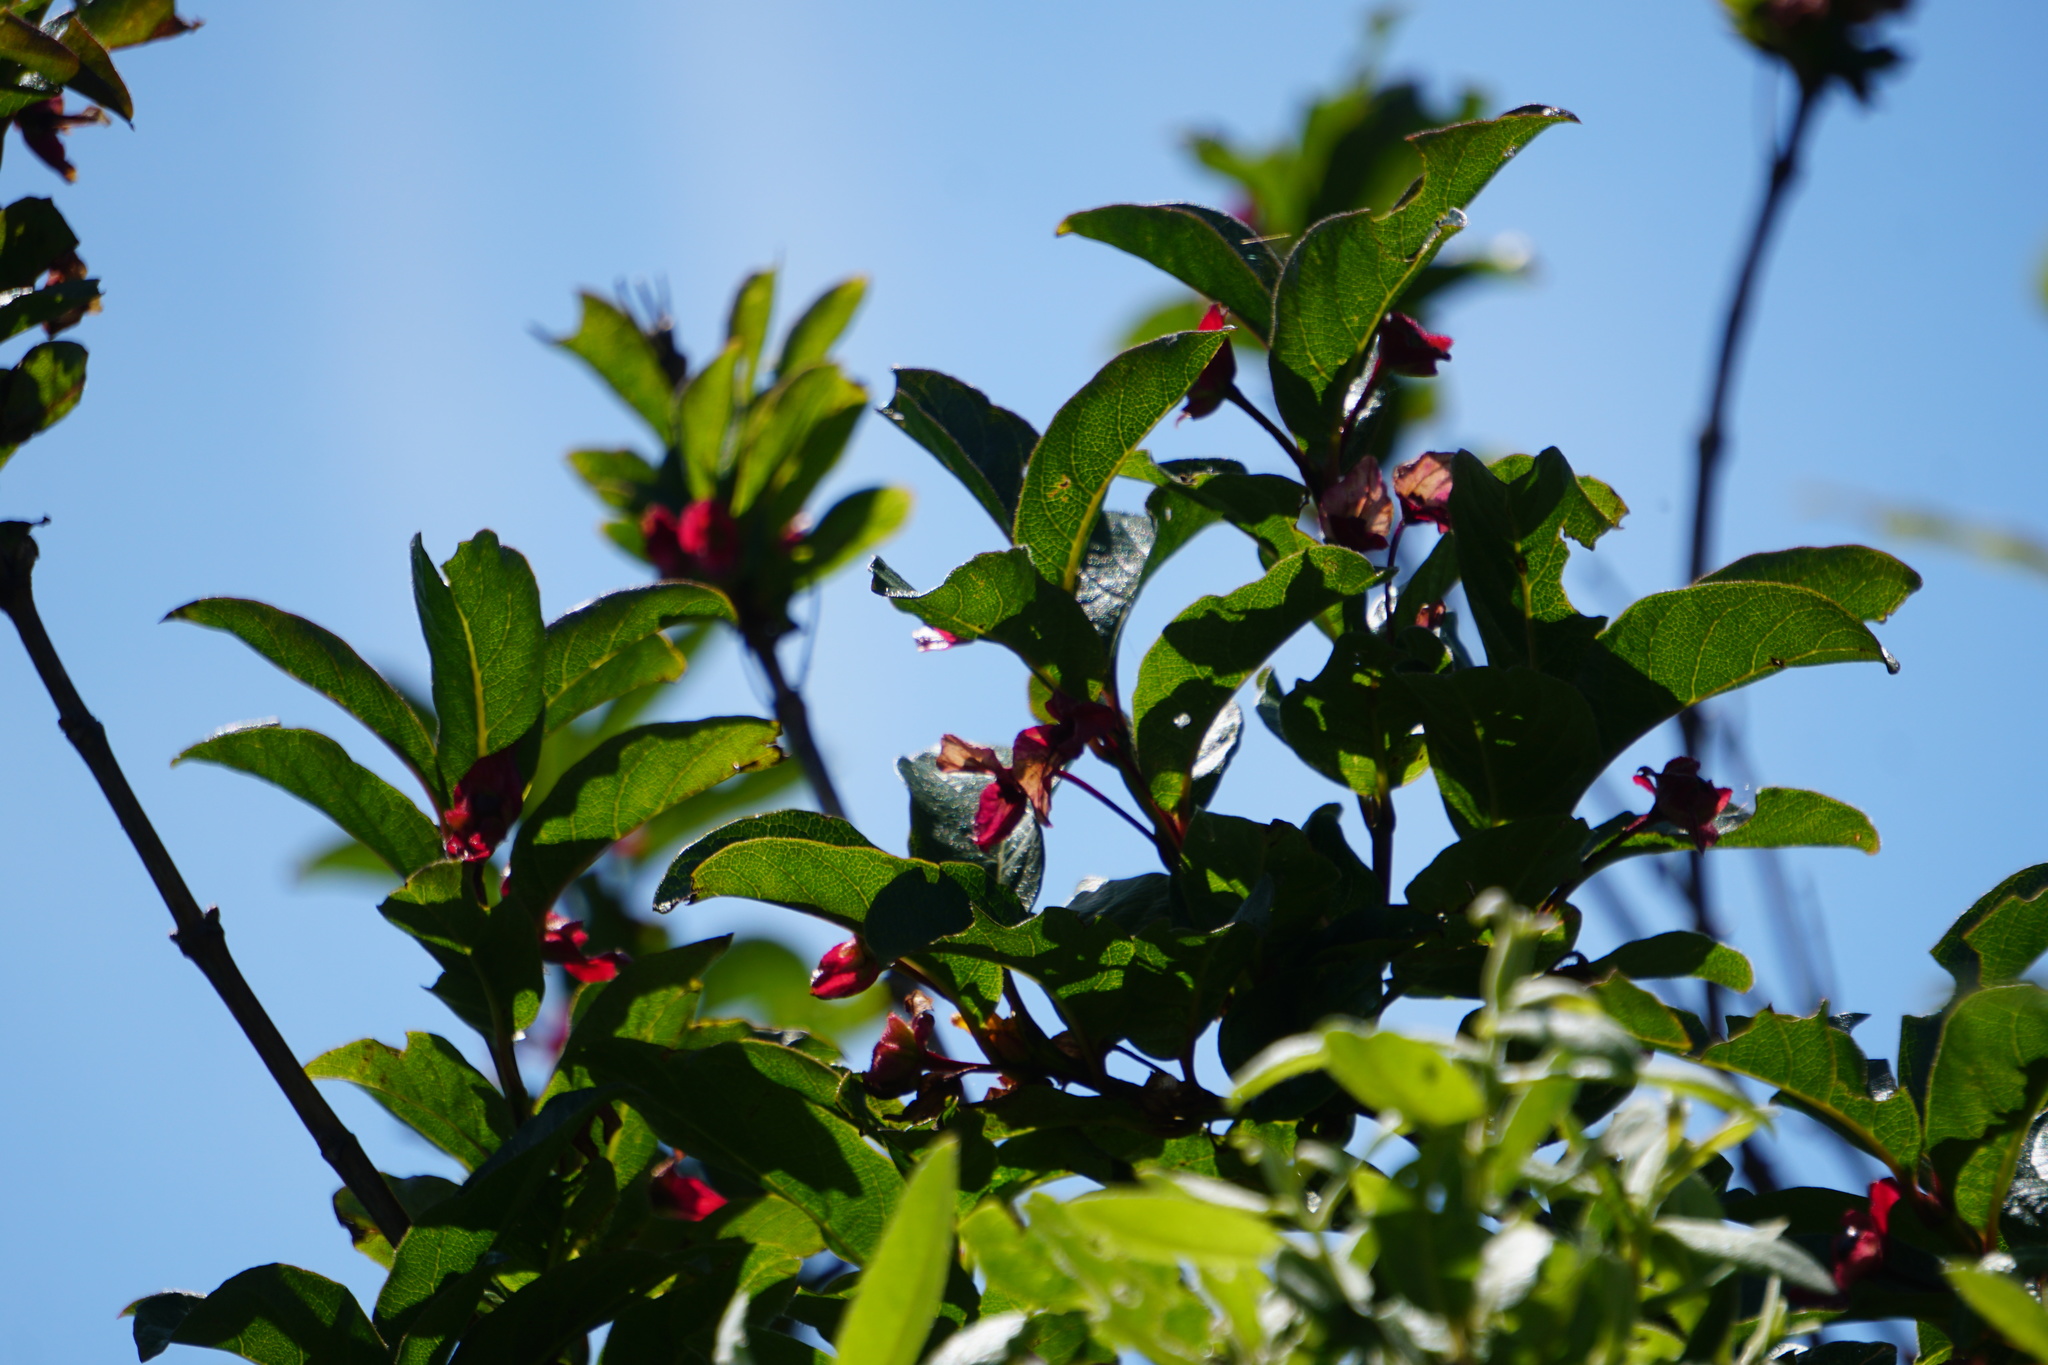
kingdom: Plantae
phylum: Tracheophyta
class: Magnoliopsida
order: Dipsacales
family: Caprifoliaceae
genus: Lonicera
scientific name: Lonicera involucrata
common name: Californian honeysuckle
